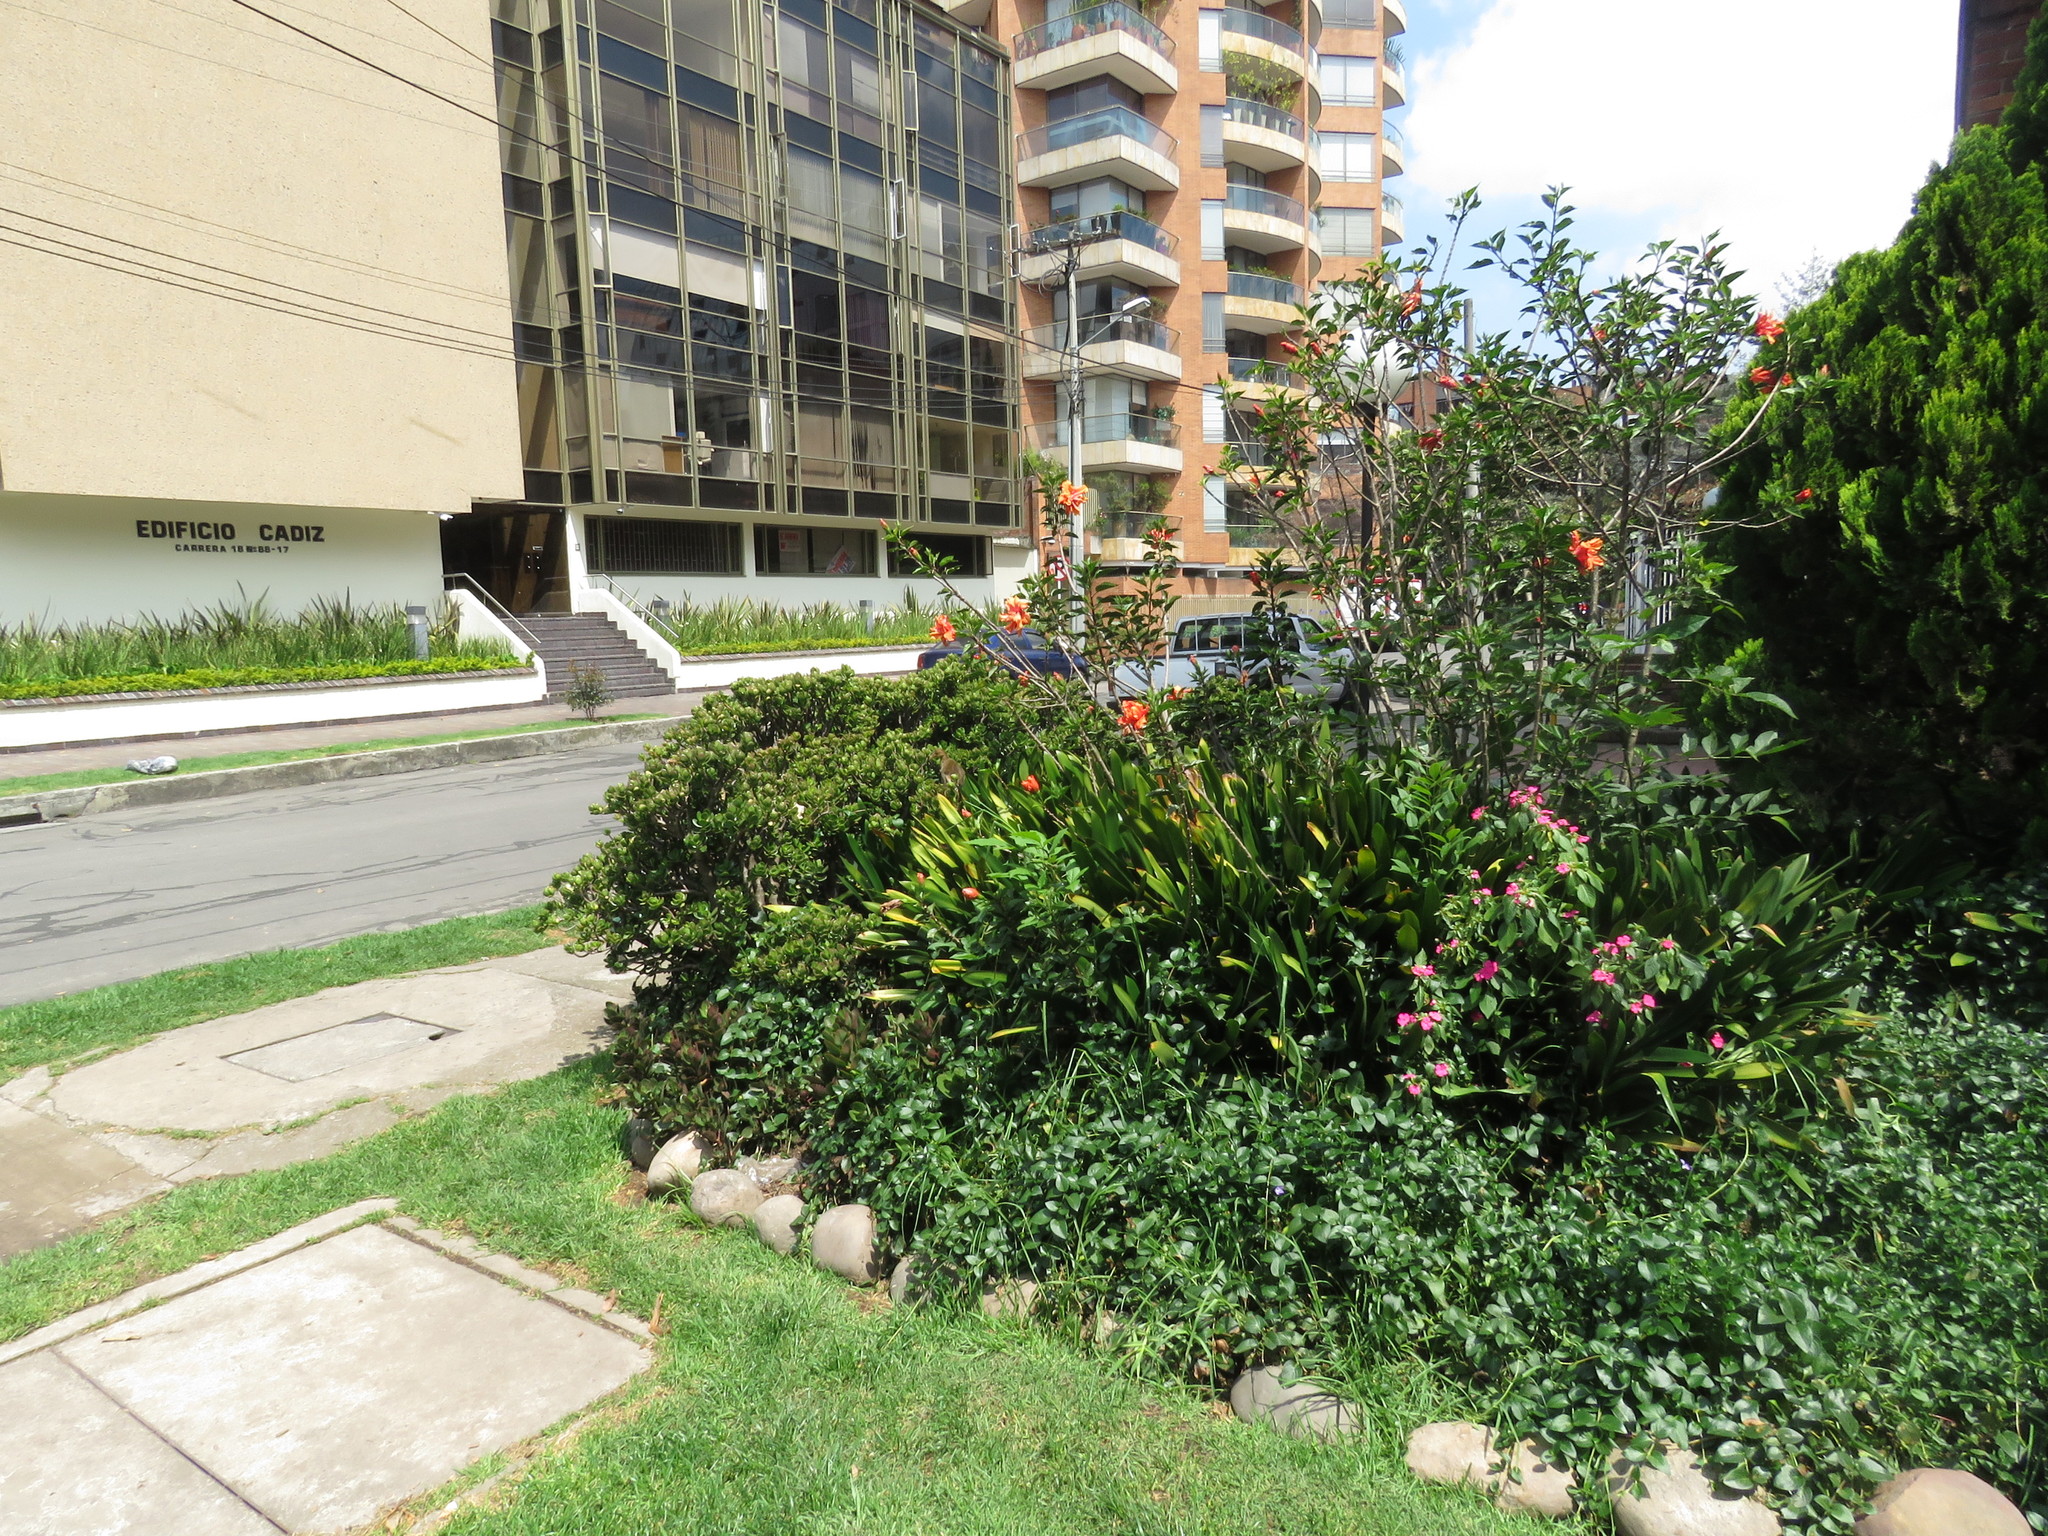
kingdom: Animalia
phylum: Chordata
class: Aves
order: Gruiformes
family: Rallidae
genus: Porphyrio
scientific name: Porphyrio martinica
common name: Purple gallinule
